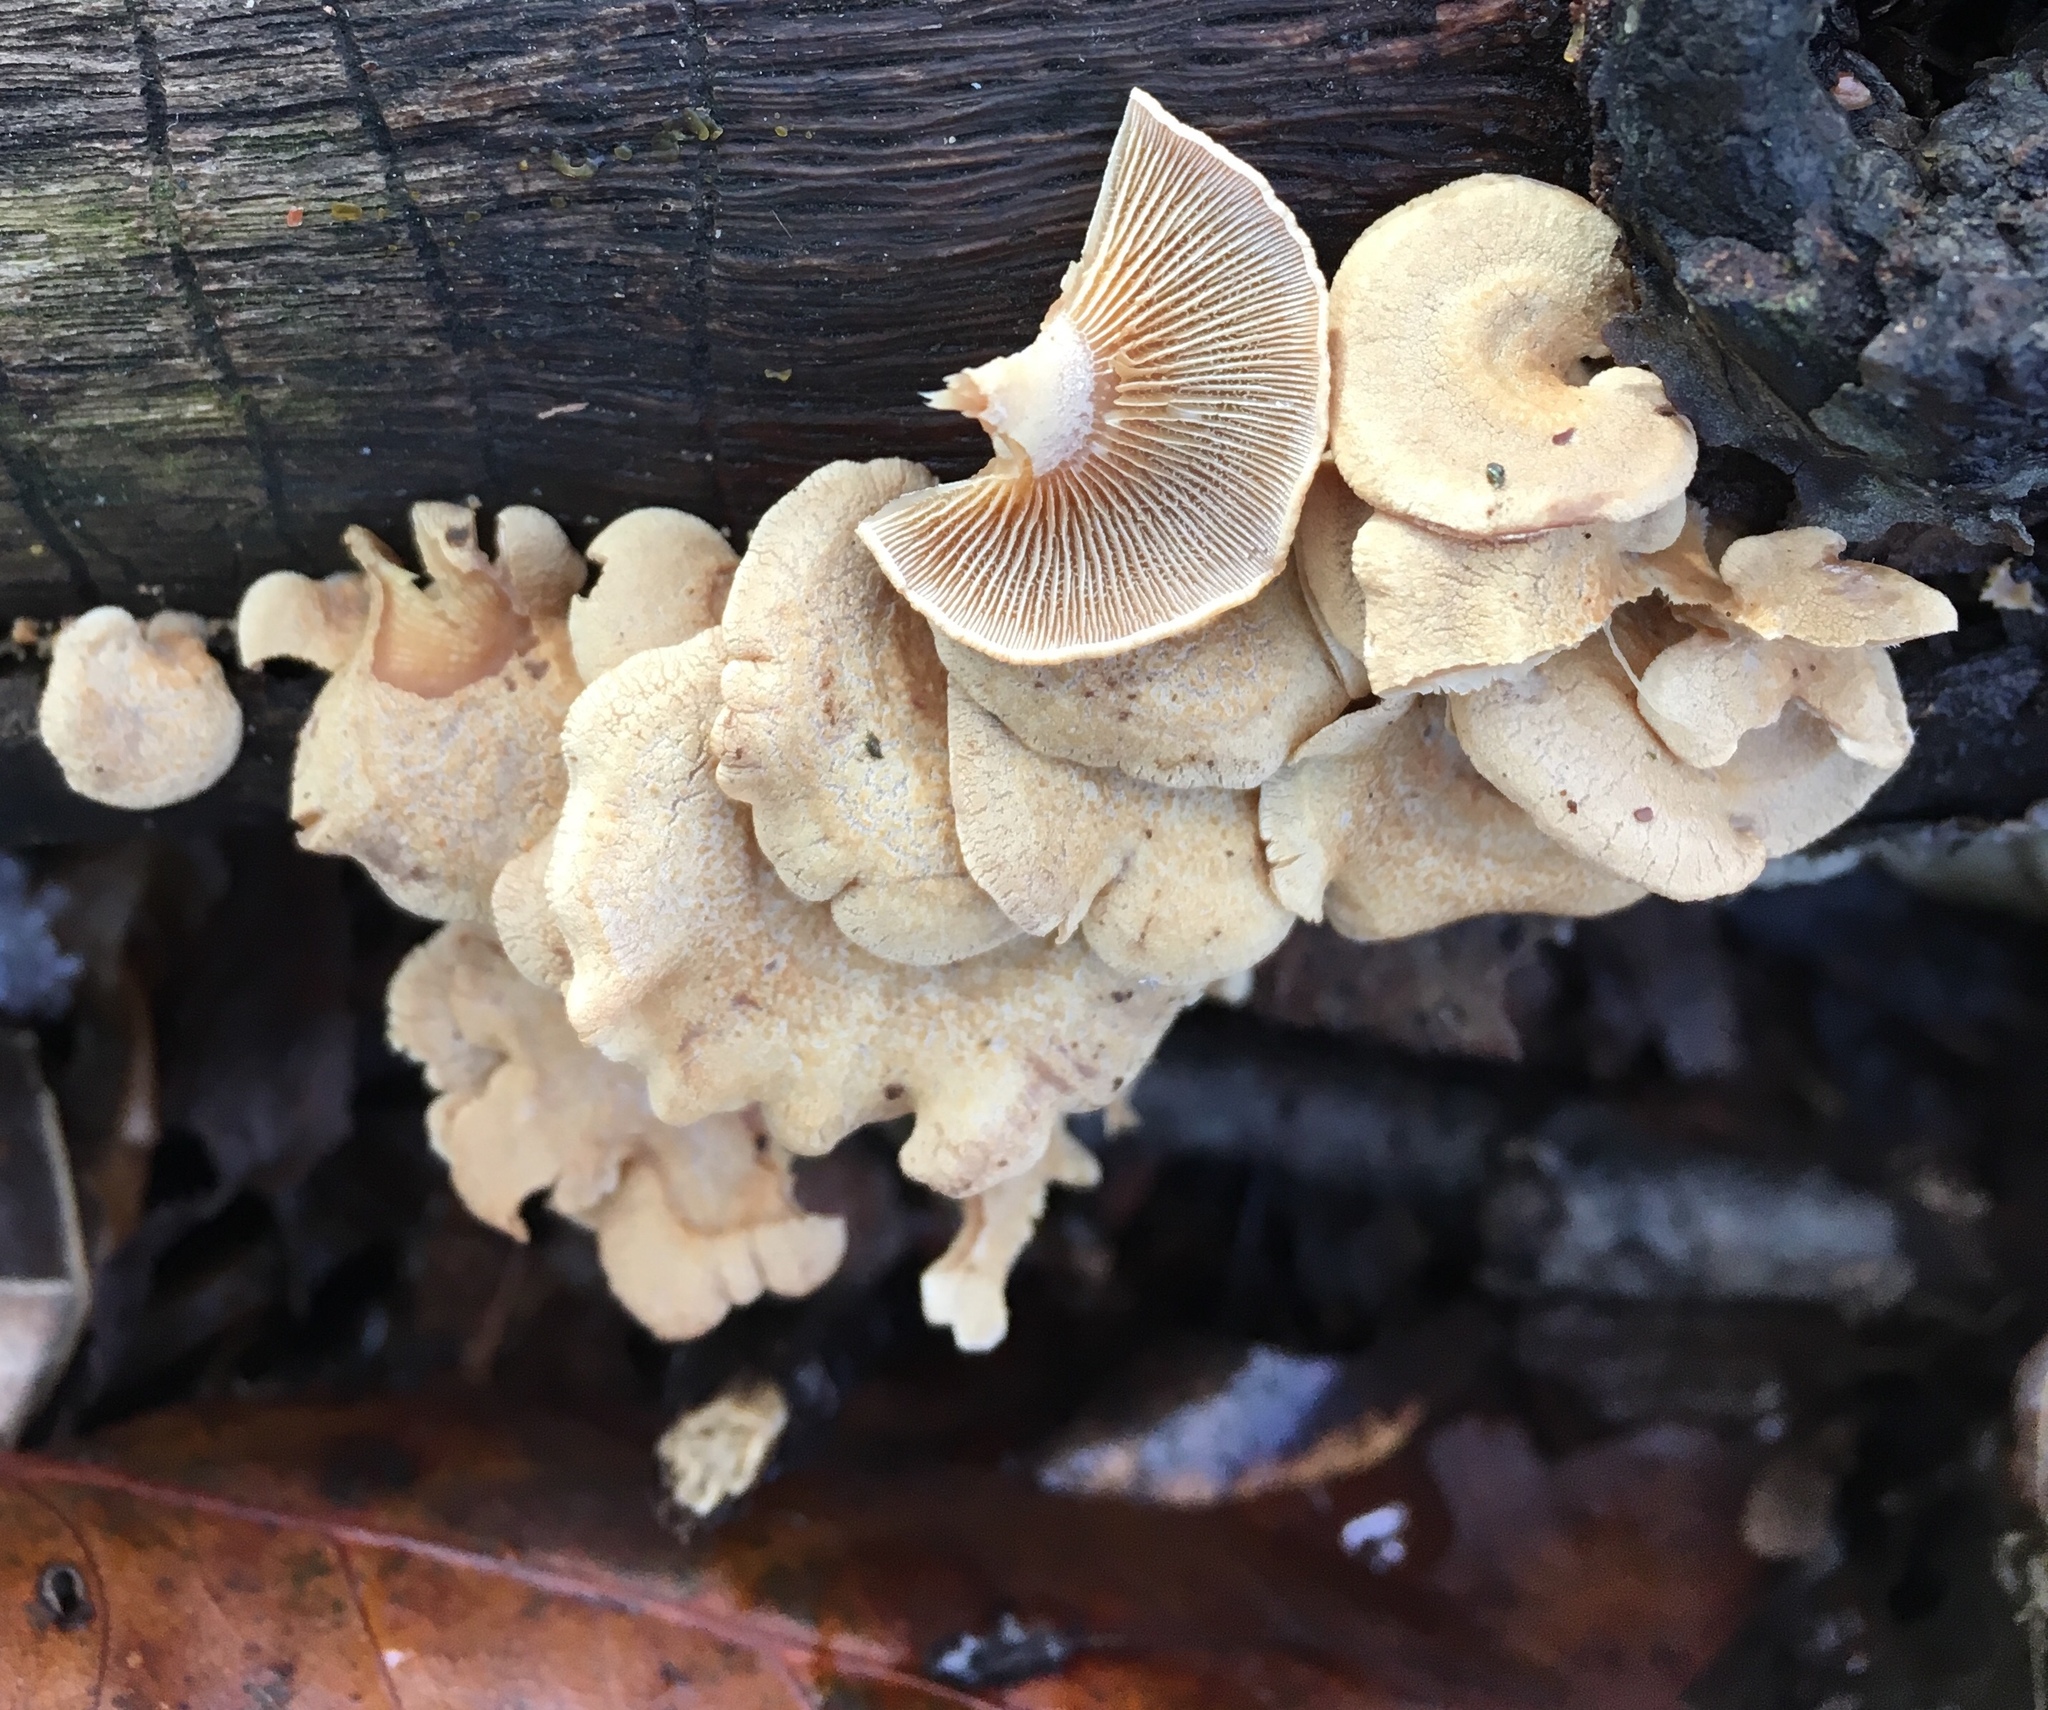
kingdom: Fungi
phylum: Basidiomycota
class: Agaricomycetes
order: Agaricales
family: Mycenaceae
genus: Panellus
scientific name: Panellus stipticus
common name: Bitter oysterling
